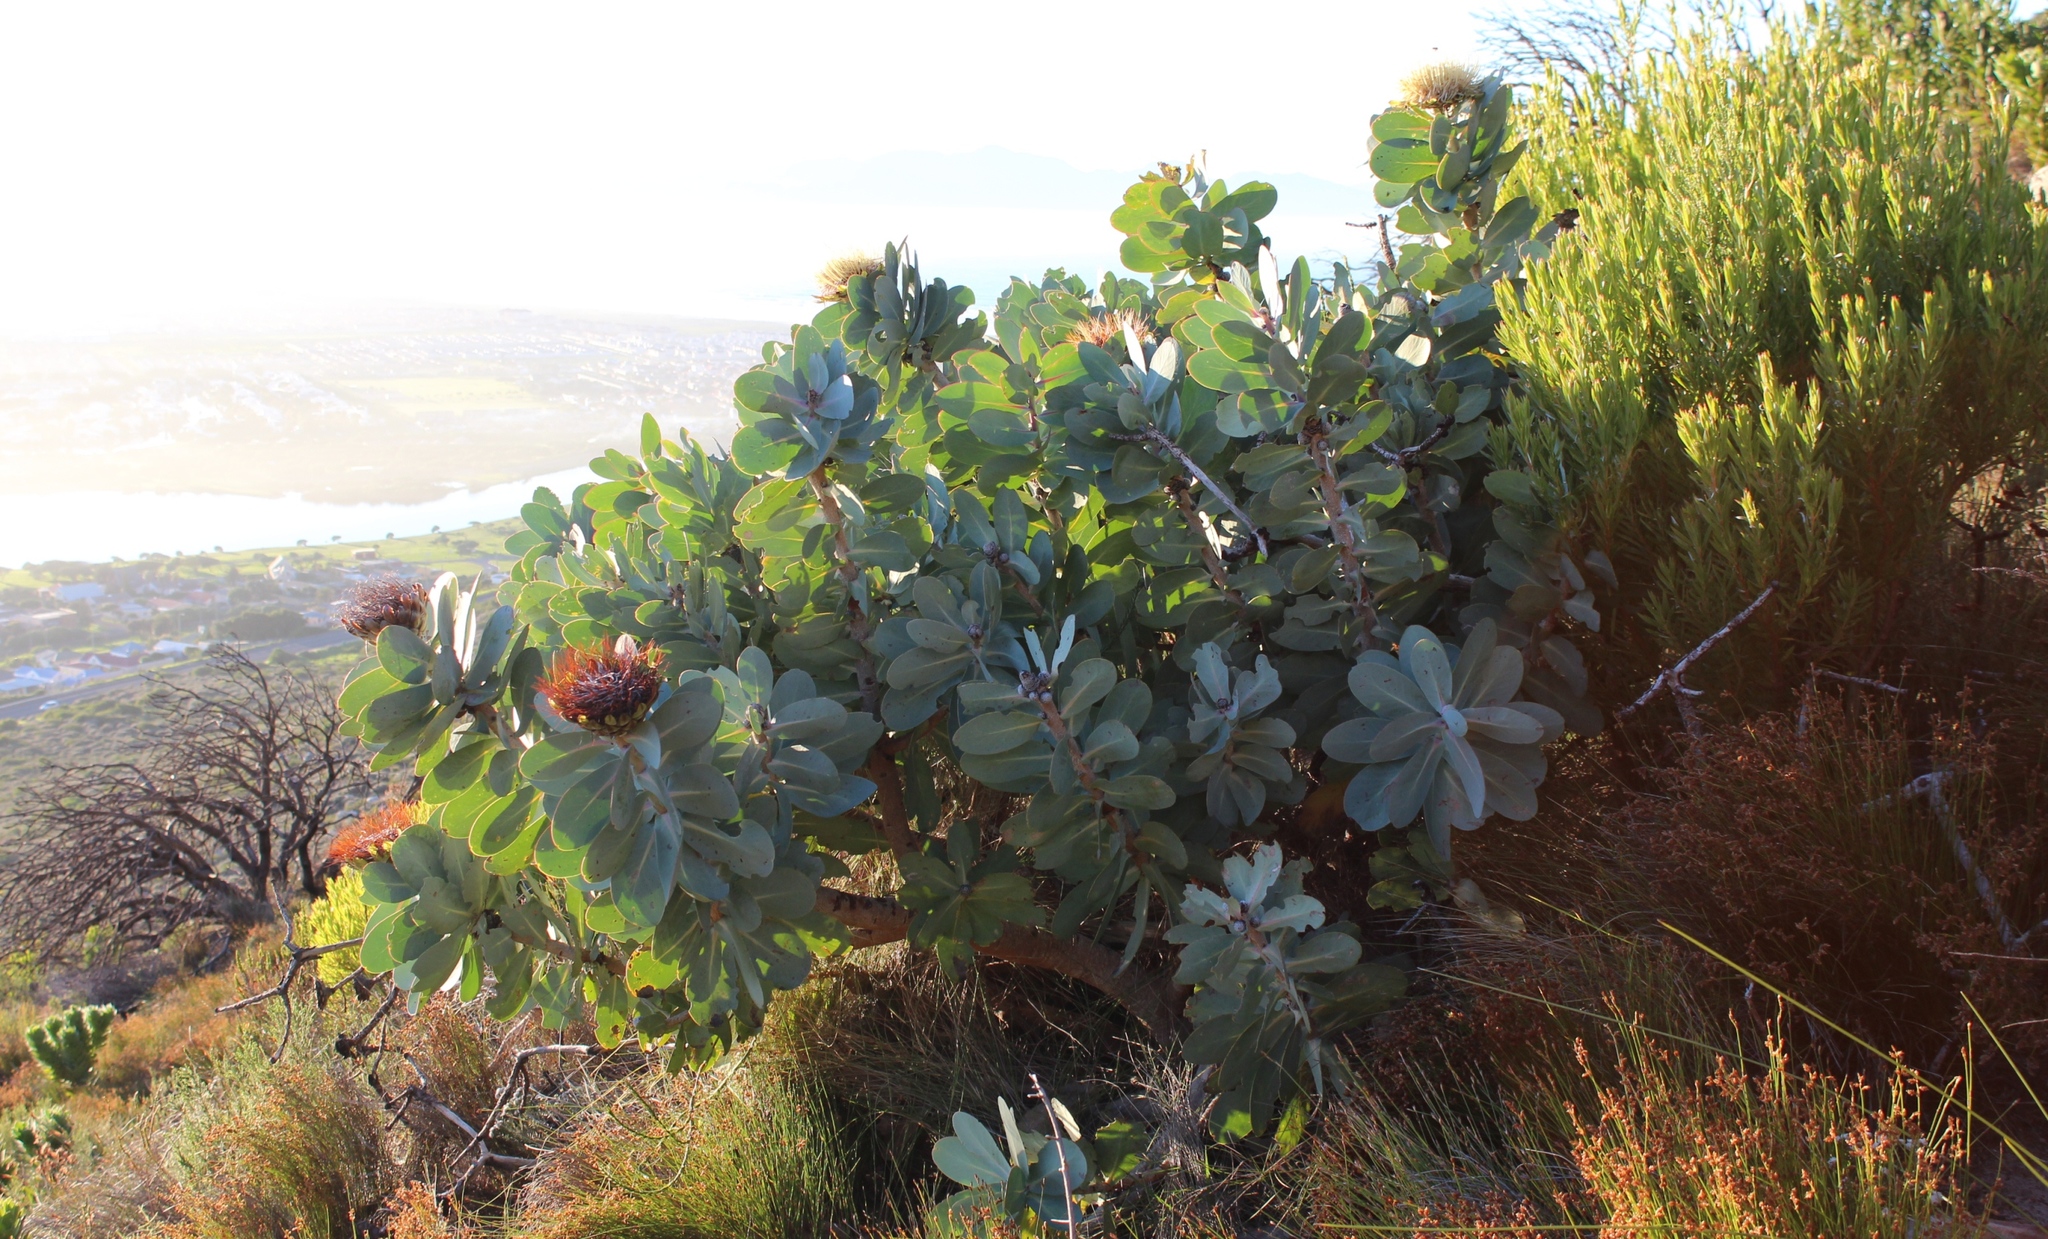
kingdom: Plantae
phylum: Tracheophyta
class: Magnoliopsida
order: Proteales
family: Proteaceae
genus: Protea
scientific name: Protea nitida
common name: Tree protea
